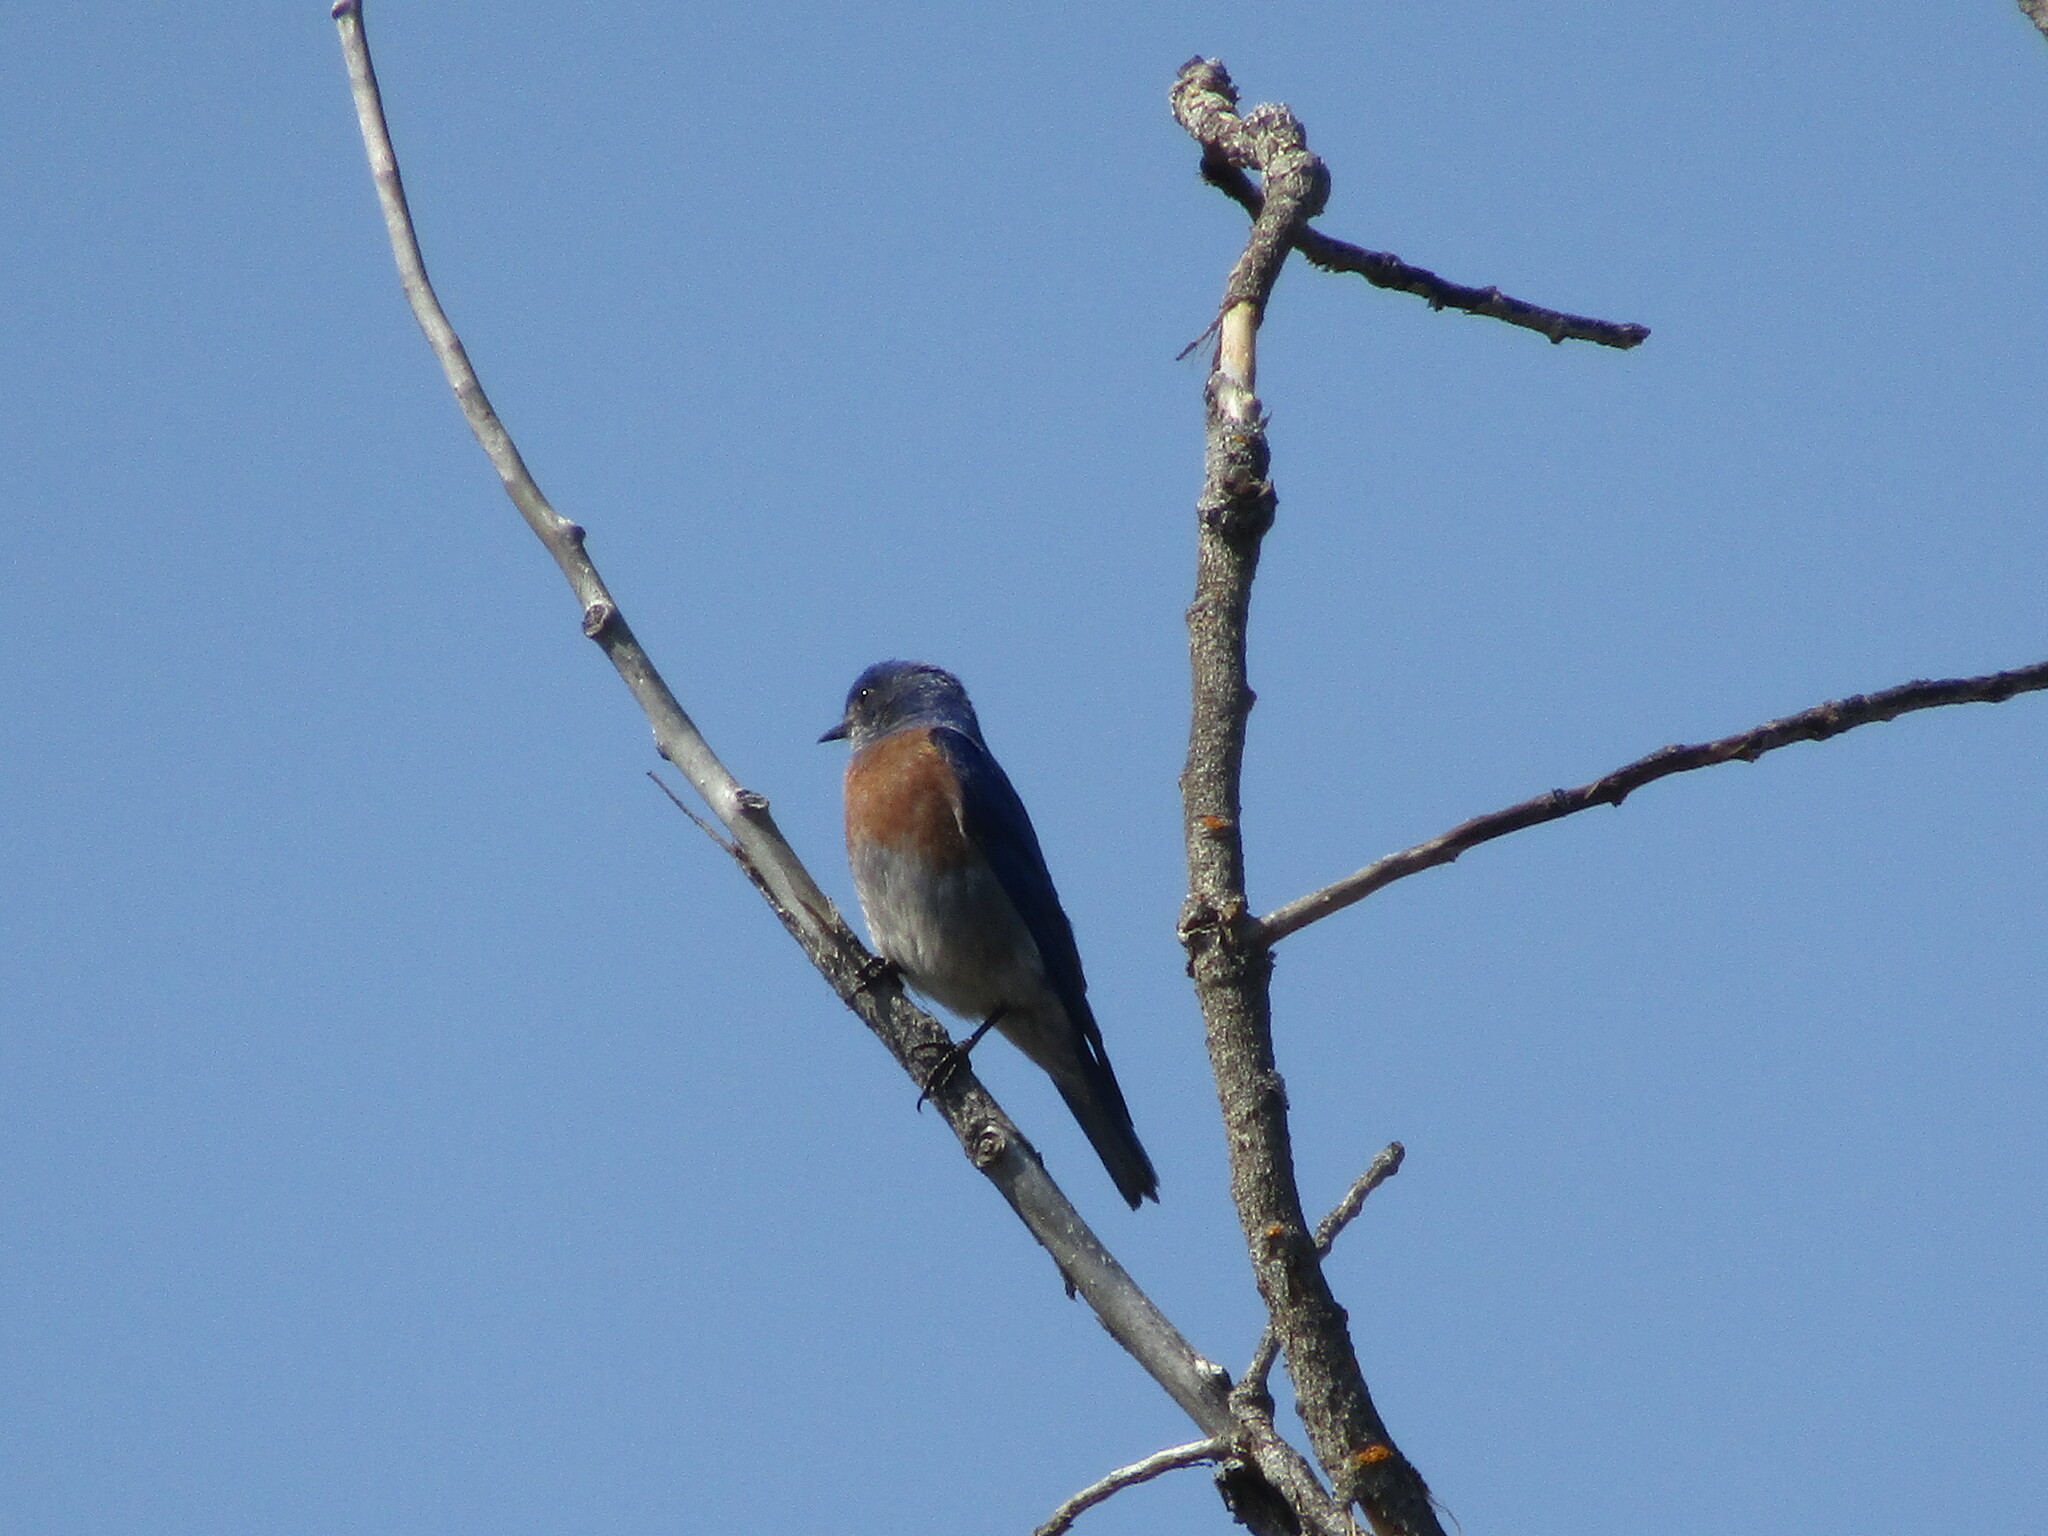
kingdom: Animalia
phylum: Chordata
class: Aves
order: Passeriformes
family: Turdidae
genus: Sialia
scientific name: Sialia mexicana
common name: Western bluebird
